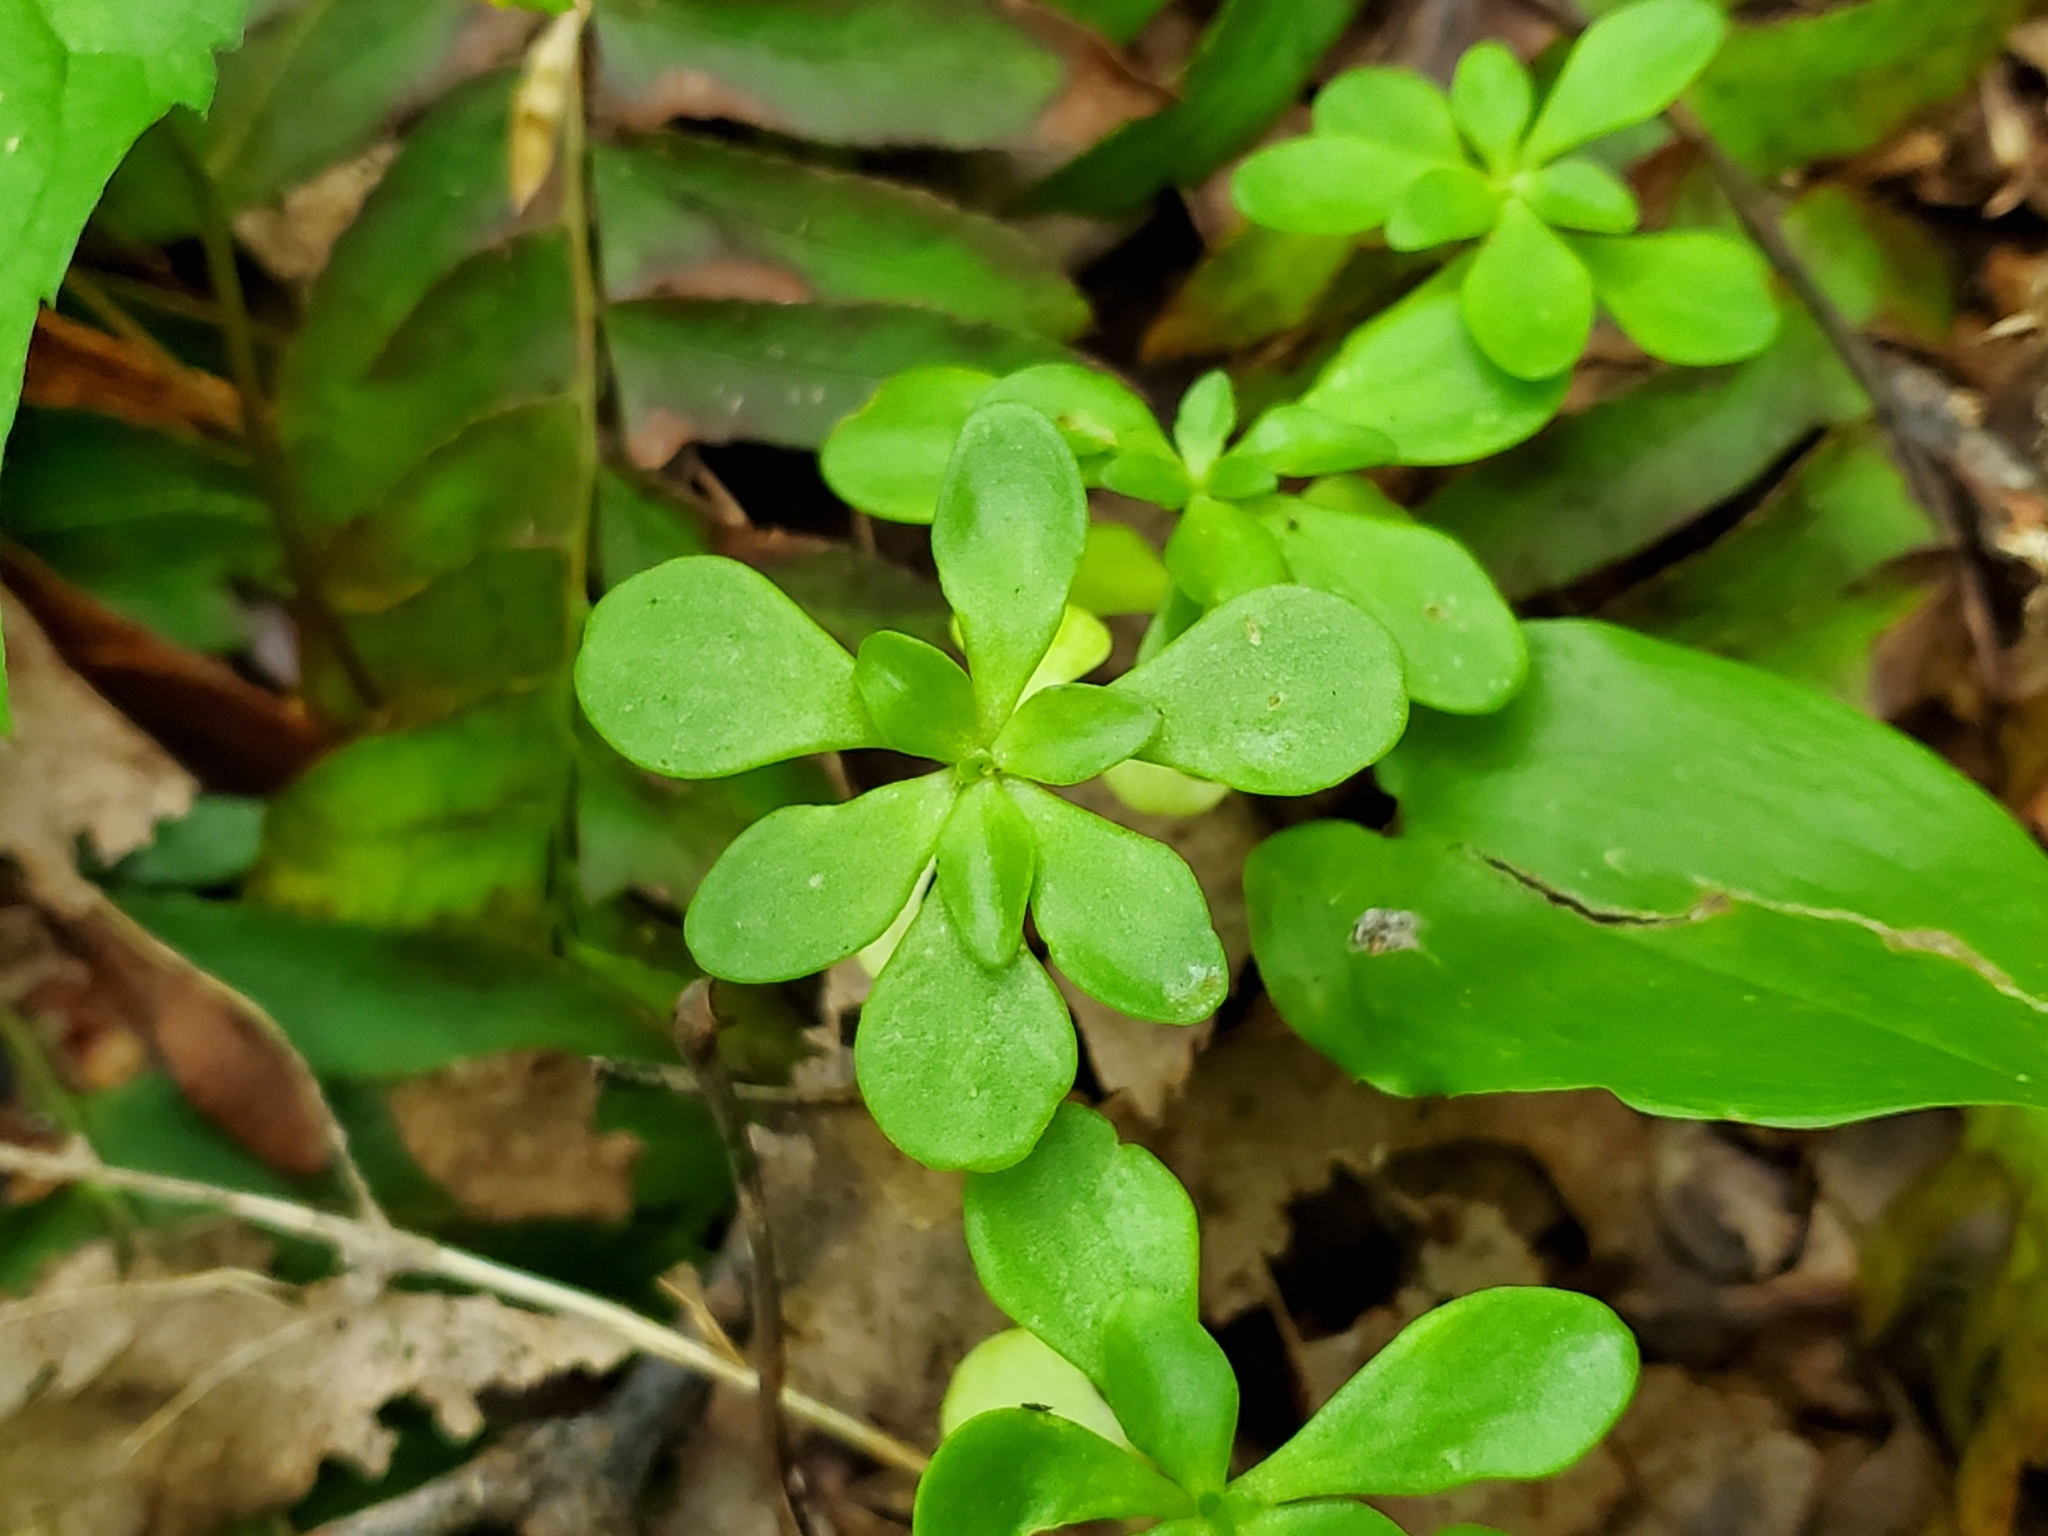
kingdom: Plantae
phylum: Tracheophyta
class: Magnoliopsida
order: Saxifragales
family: Crassulaceae
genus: Sedum
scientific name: Sedum ternatum
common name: Wild stonecrop
